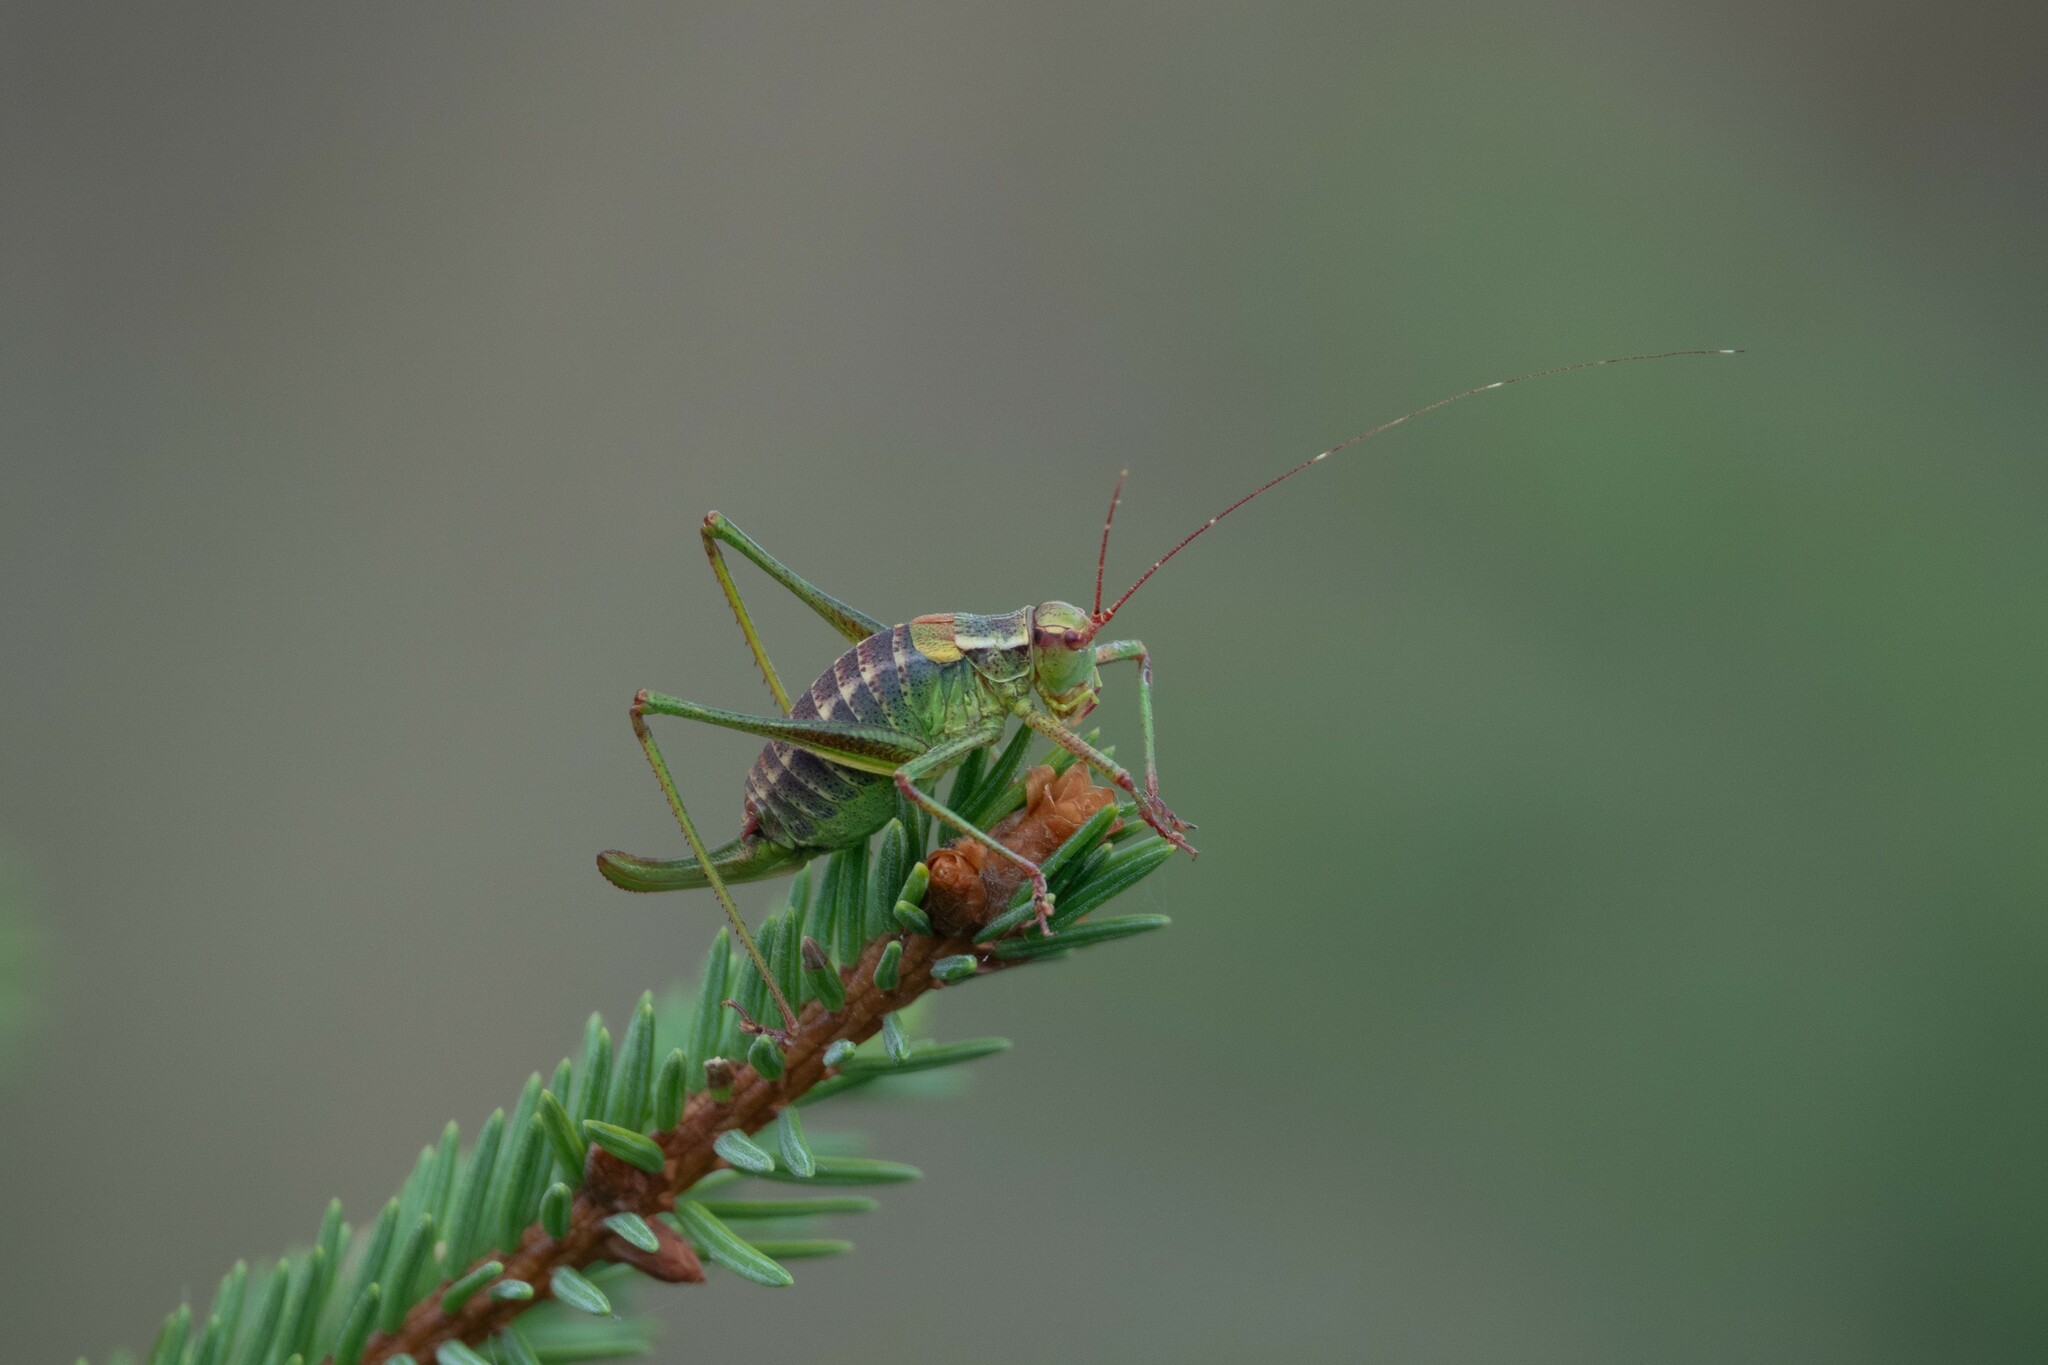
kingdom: Animalia
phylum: Arthropoda
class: Insecta
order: Orthoptera
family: Tettigoniidae
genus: Barbitistes
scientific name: Barbitistes constrictus
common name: Eastern saw-tailed bush cricket
